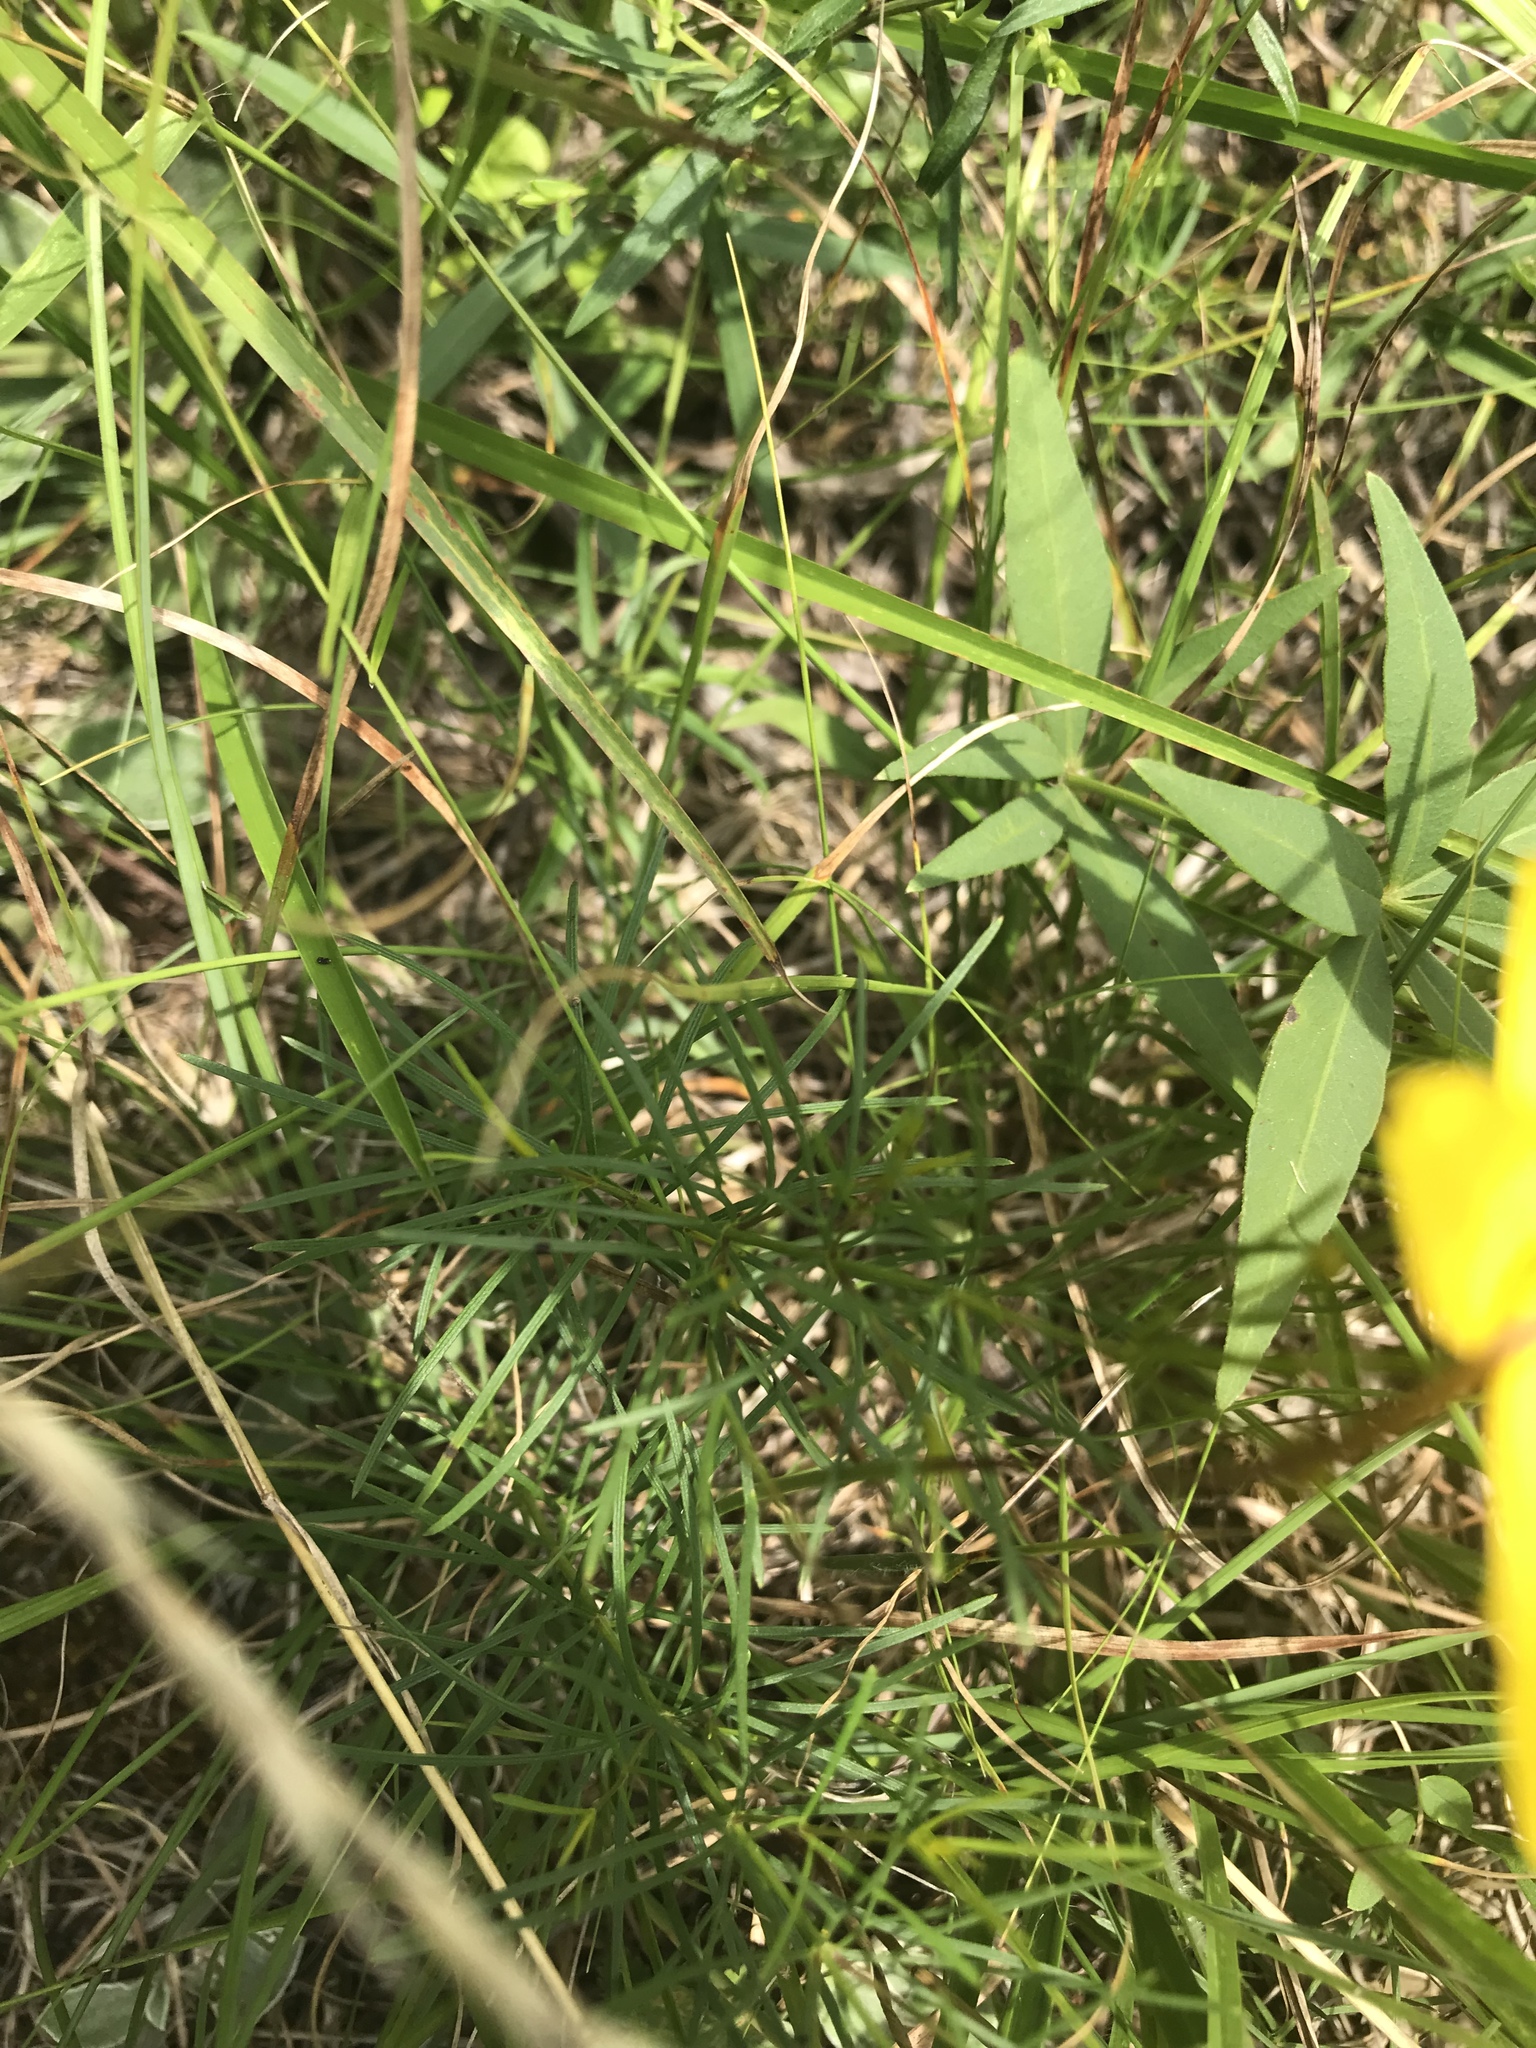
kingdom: Plantae
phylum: Tracheophyta
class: Magnoliopsida
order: Asterales
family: Asteraceae
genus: Coreopsis
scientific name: Coreopsis verticillata
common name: Whorled tickseed
